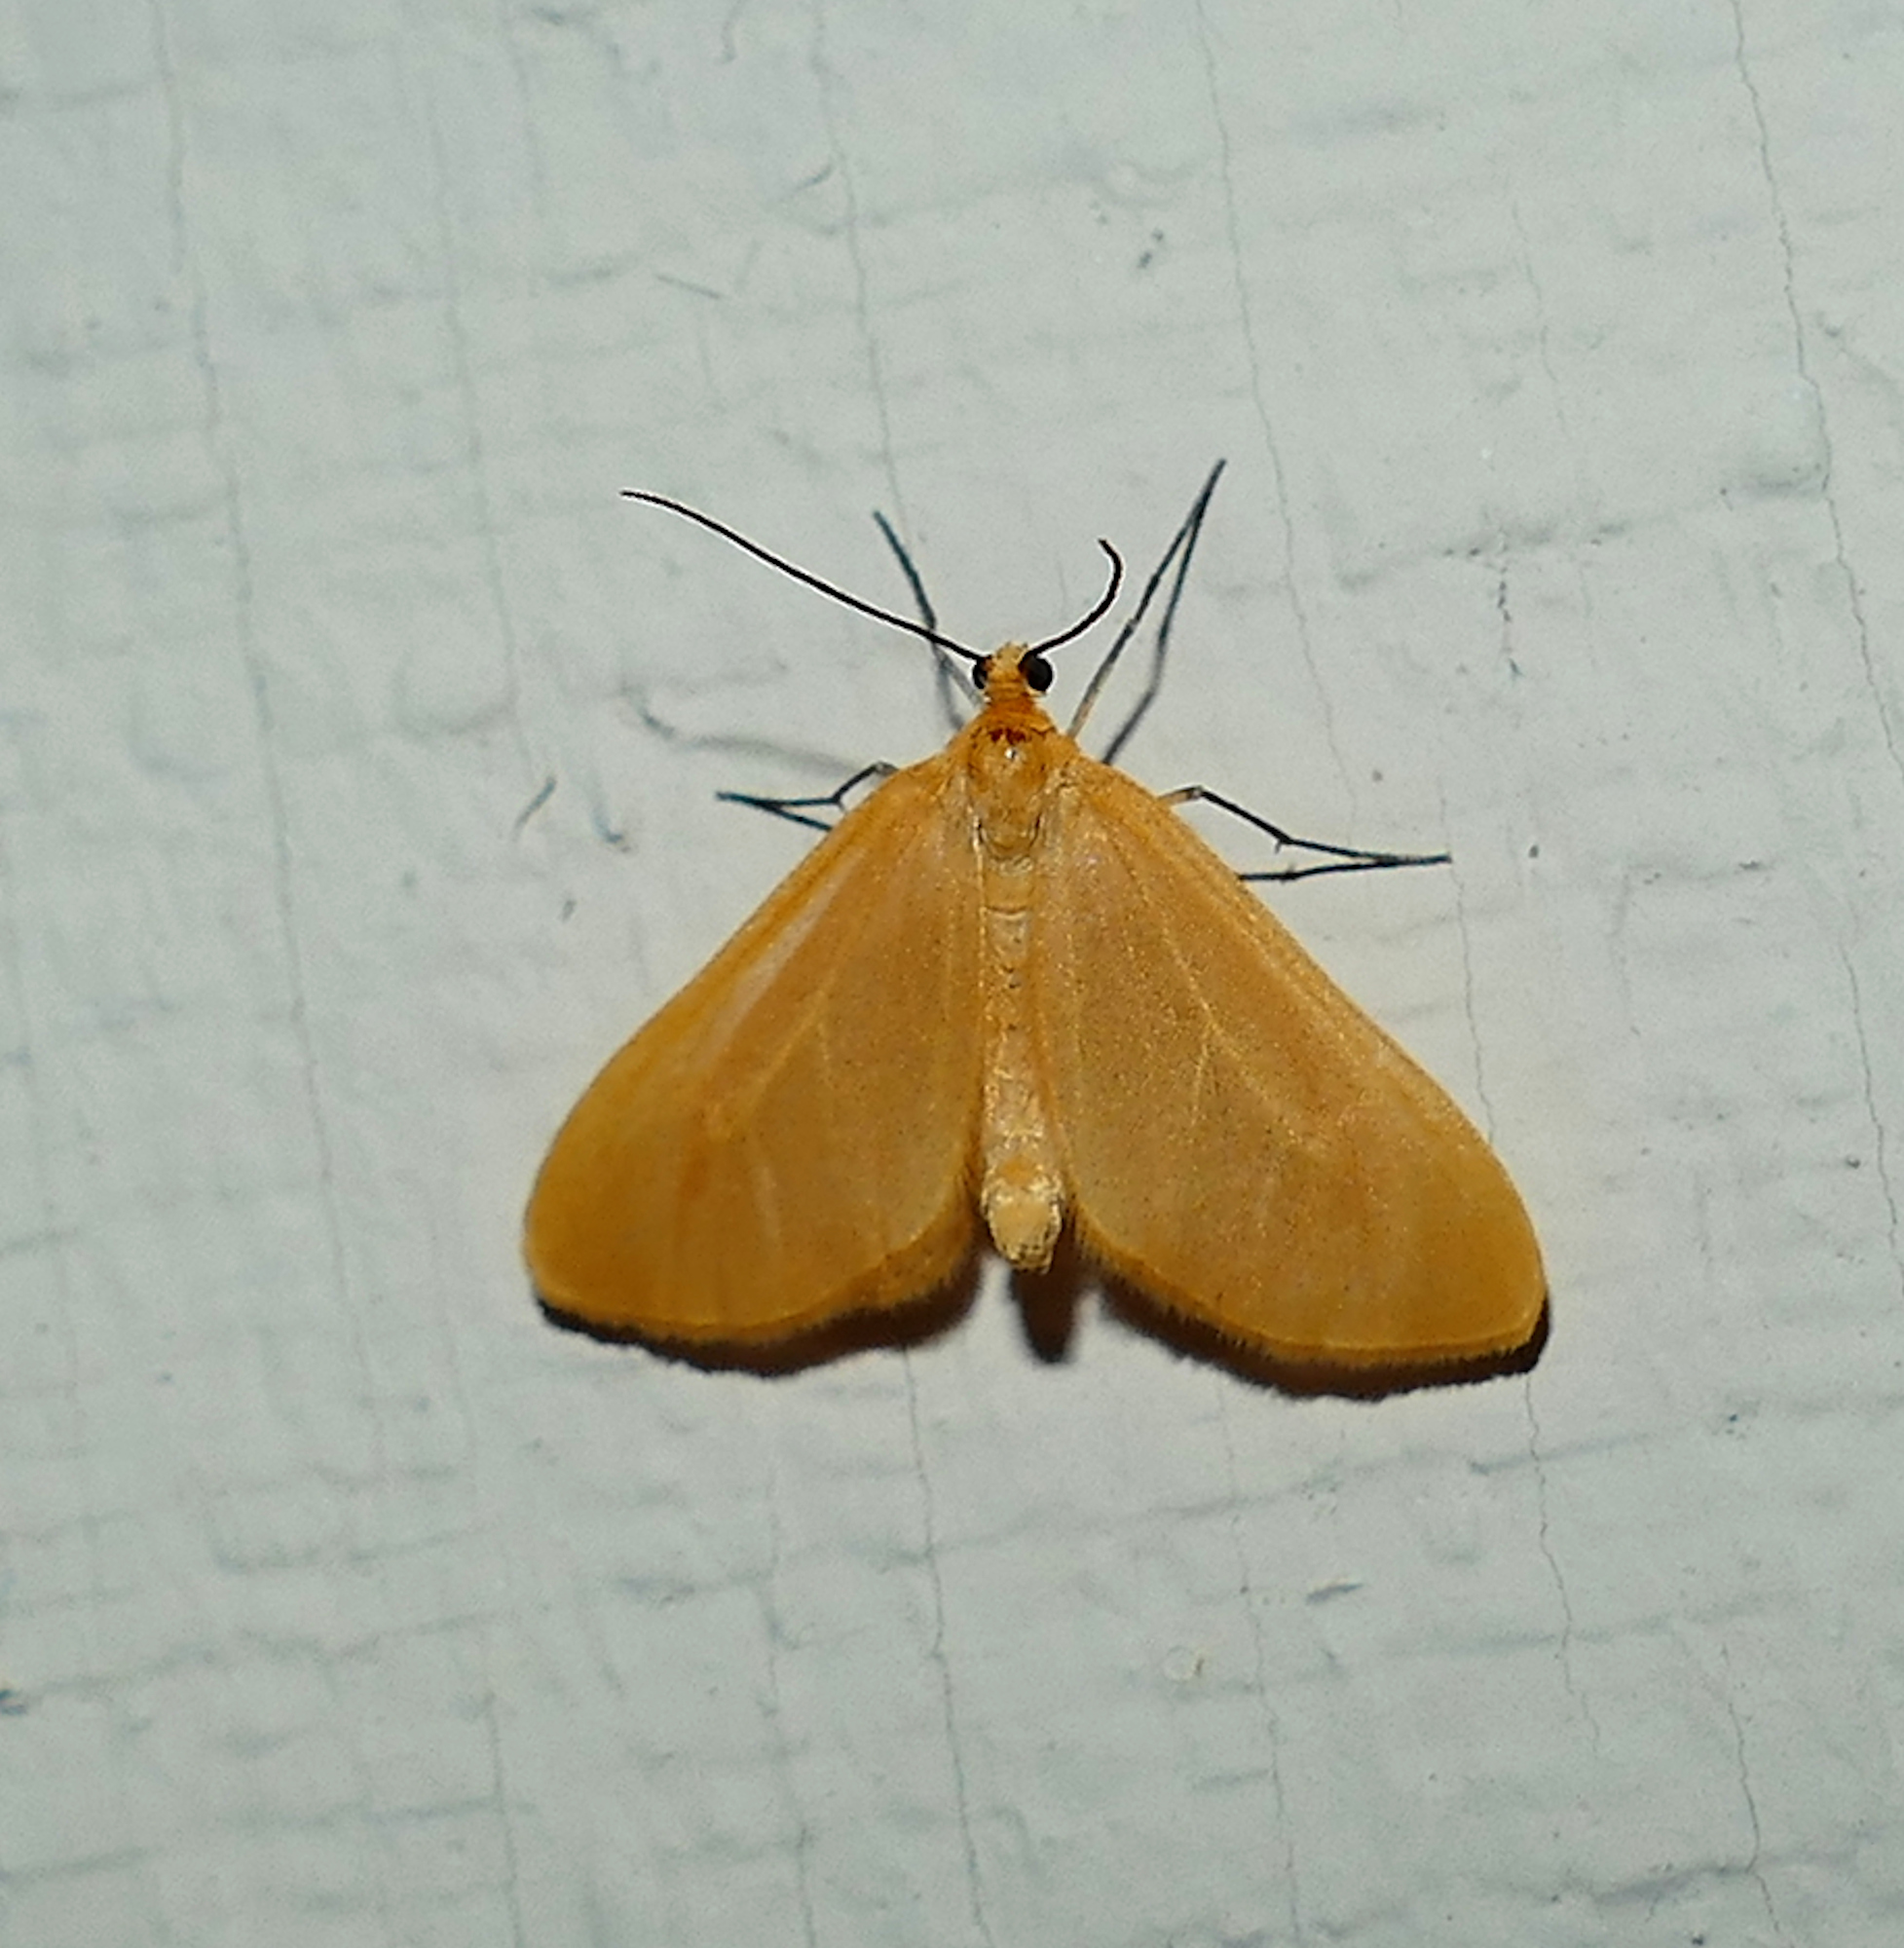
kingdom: Animalia
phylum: Arthropoda
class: Insecta
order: Lepidoptera
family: Geometridae
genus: Eubaphe
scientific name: Eubaphe unicolor
